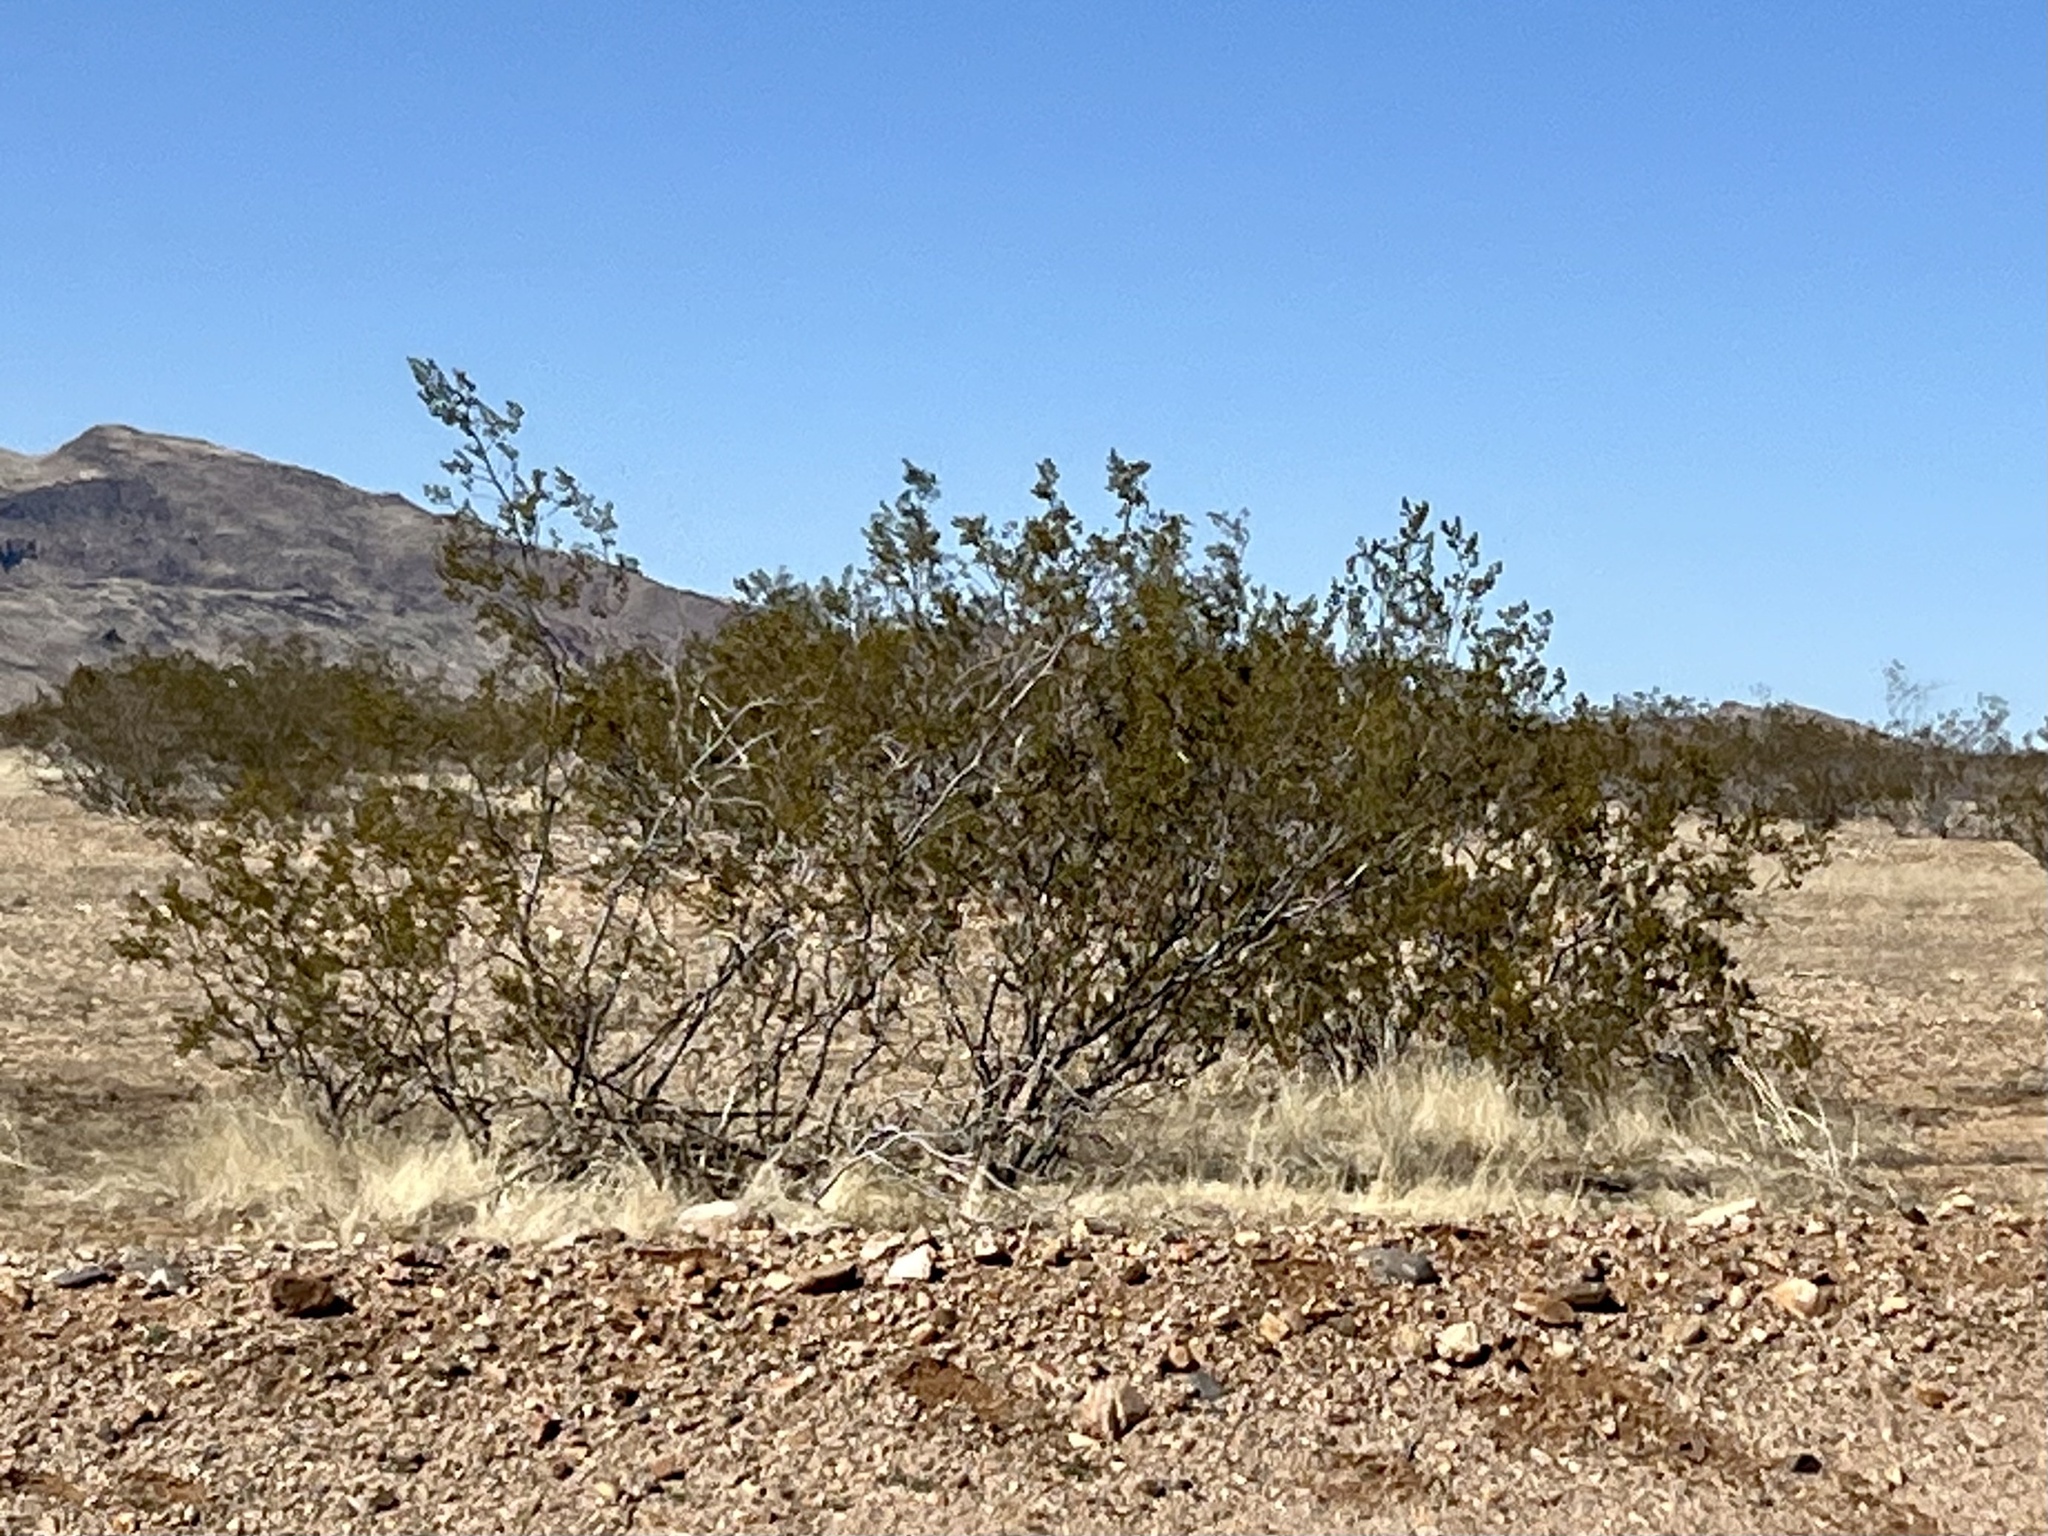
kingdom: Plantae
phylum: Tracheophyta
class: Magnoliopsida
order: Zygophyllales
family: Zygophyllaceae
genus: Larrea
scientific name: Larrea tridentata
